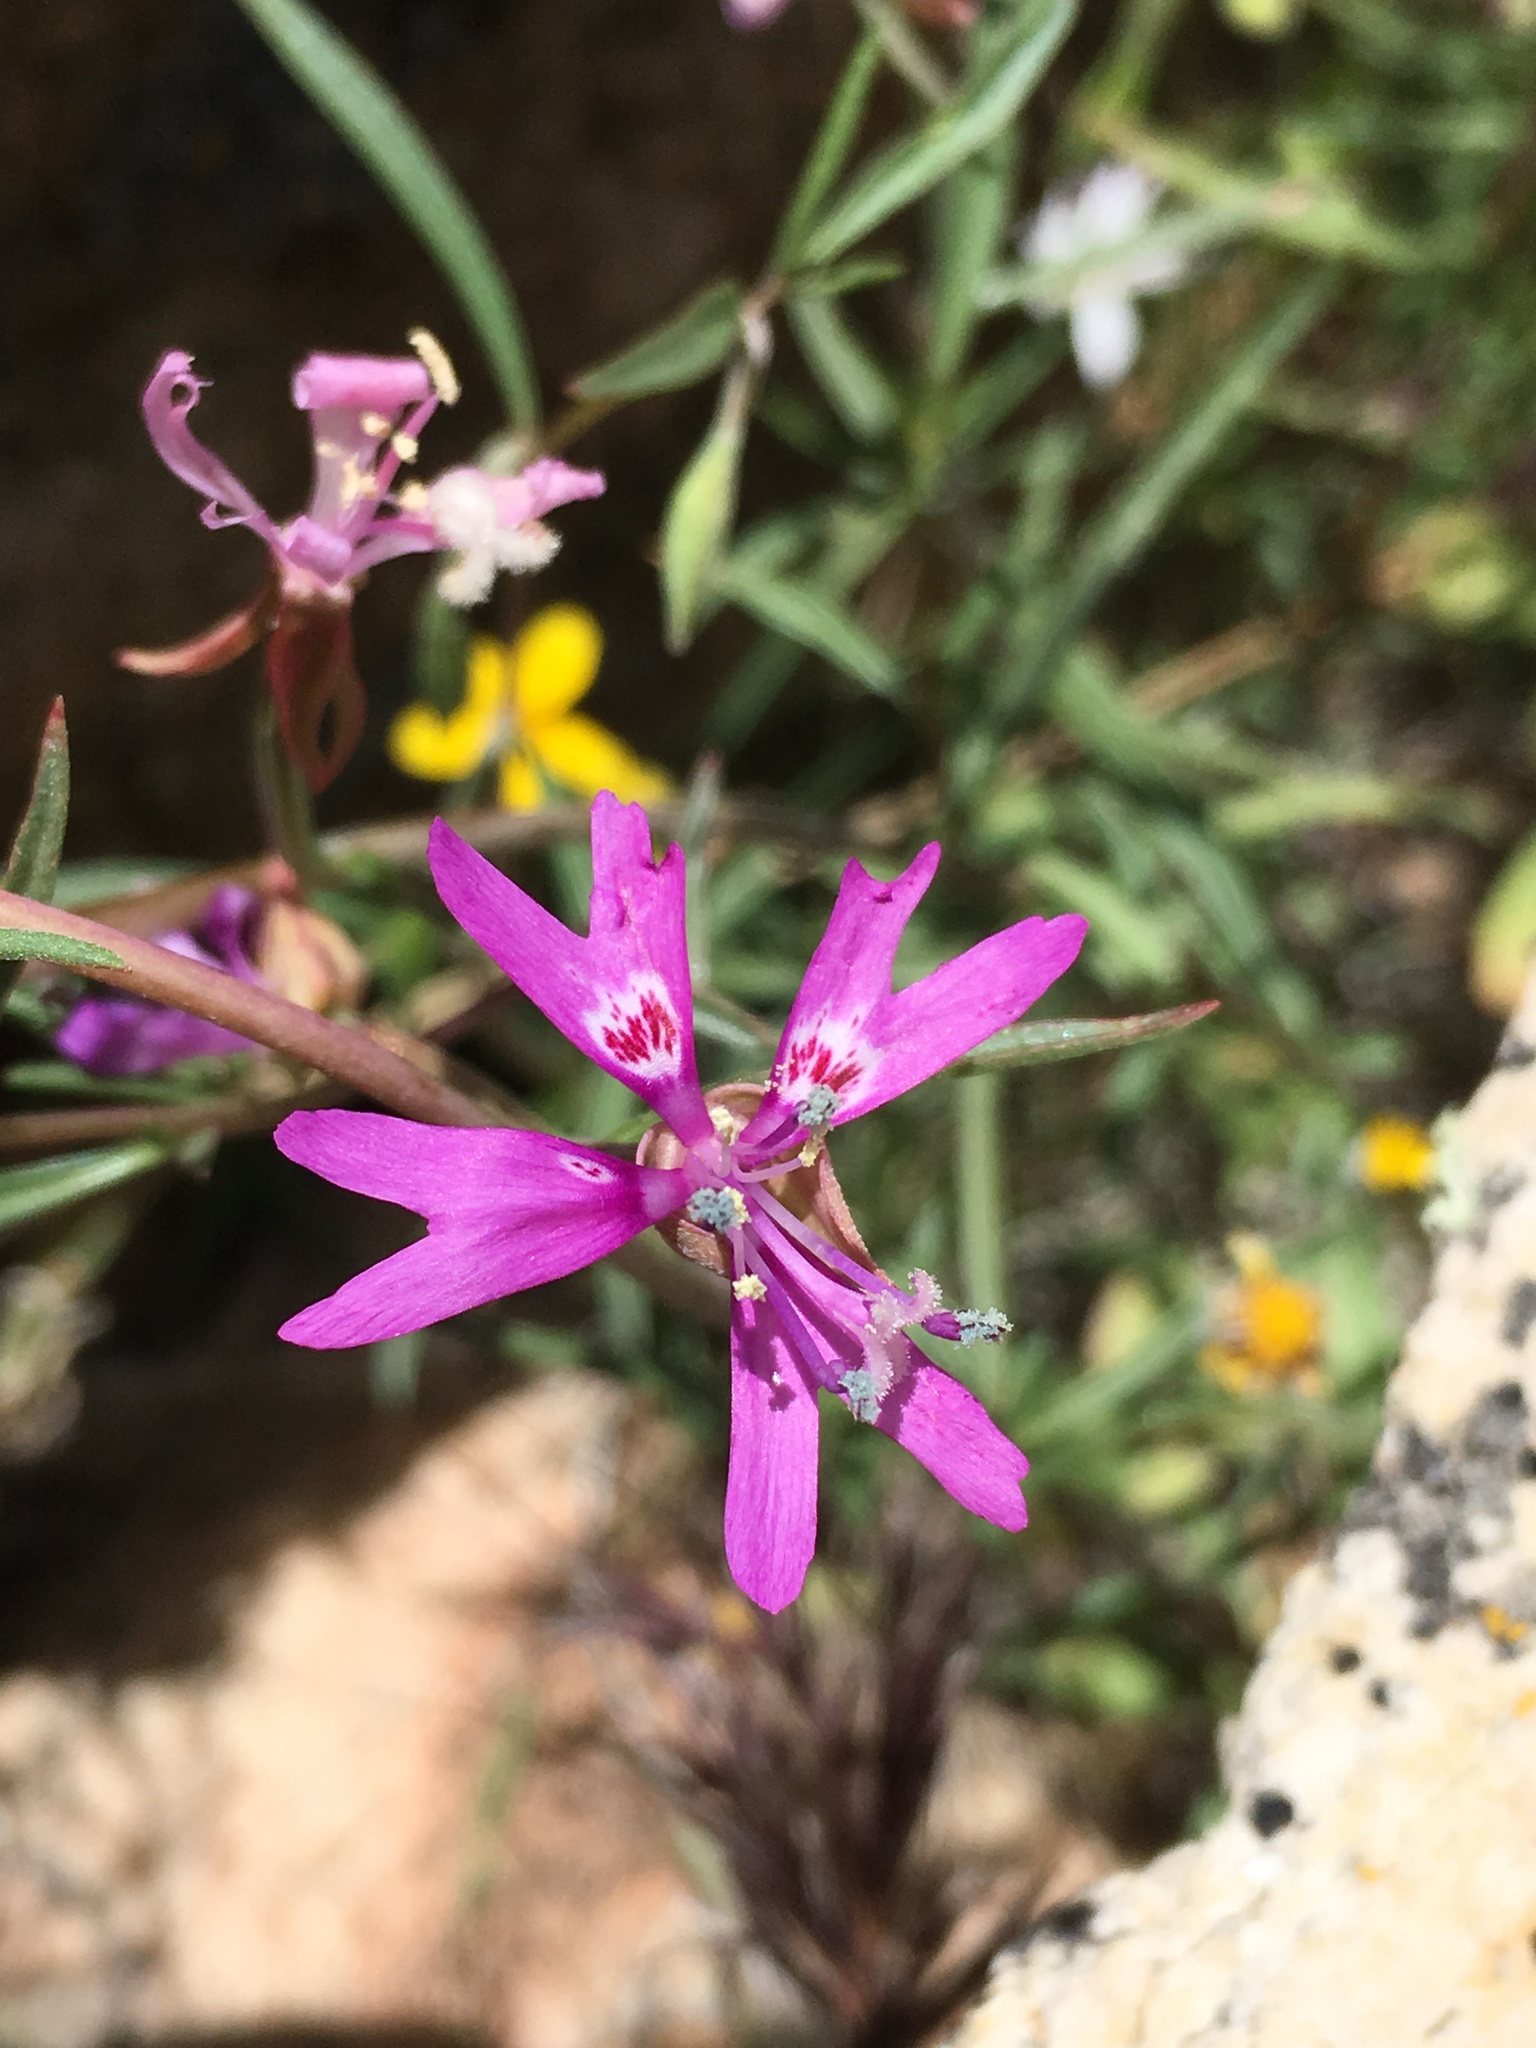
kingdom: Plantae
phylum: Tracheophyta
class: Magnoliopsida
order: Myrtales
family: Onagraceae
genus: Clarkia
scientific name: Clarkia xantiana
